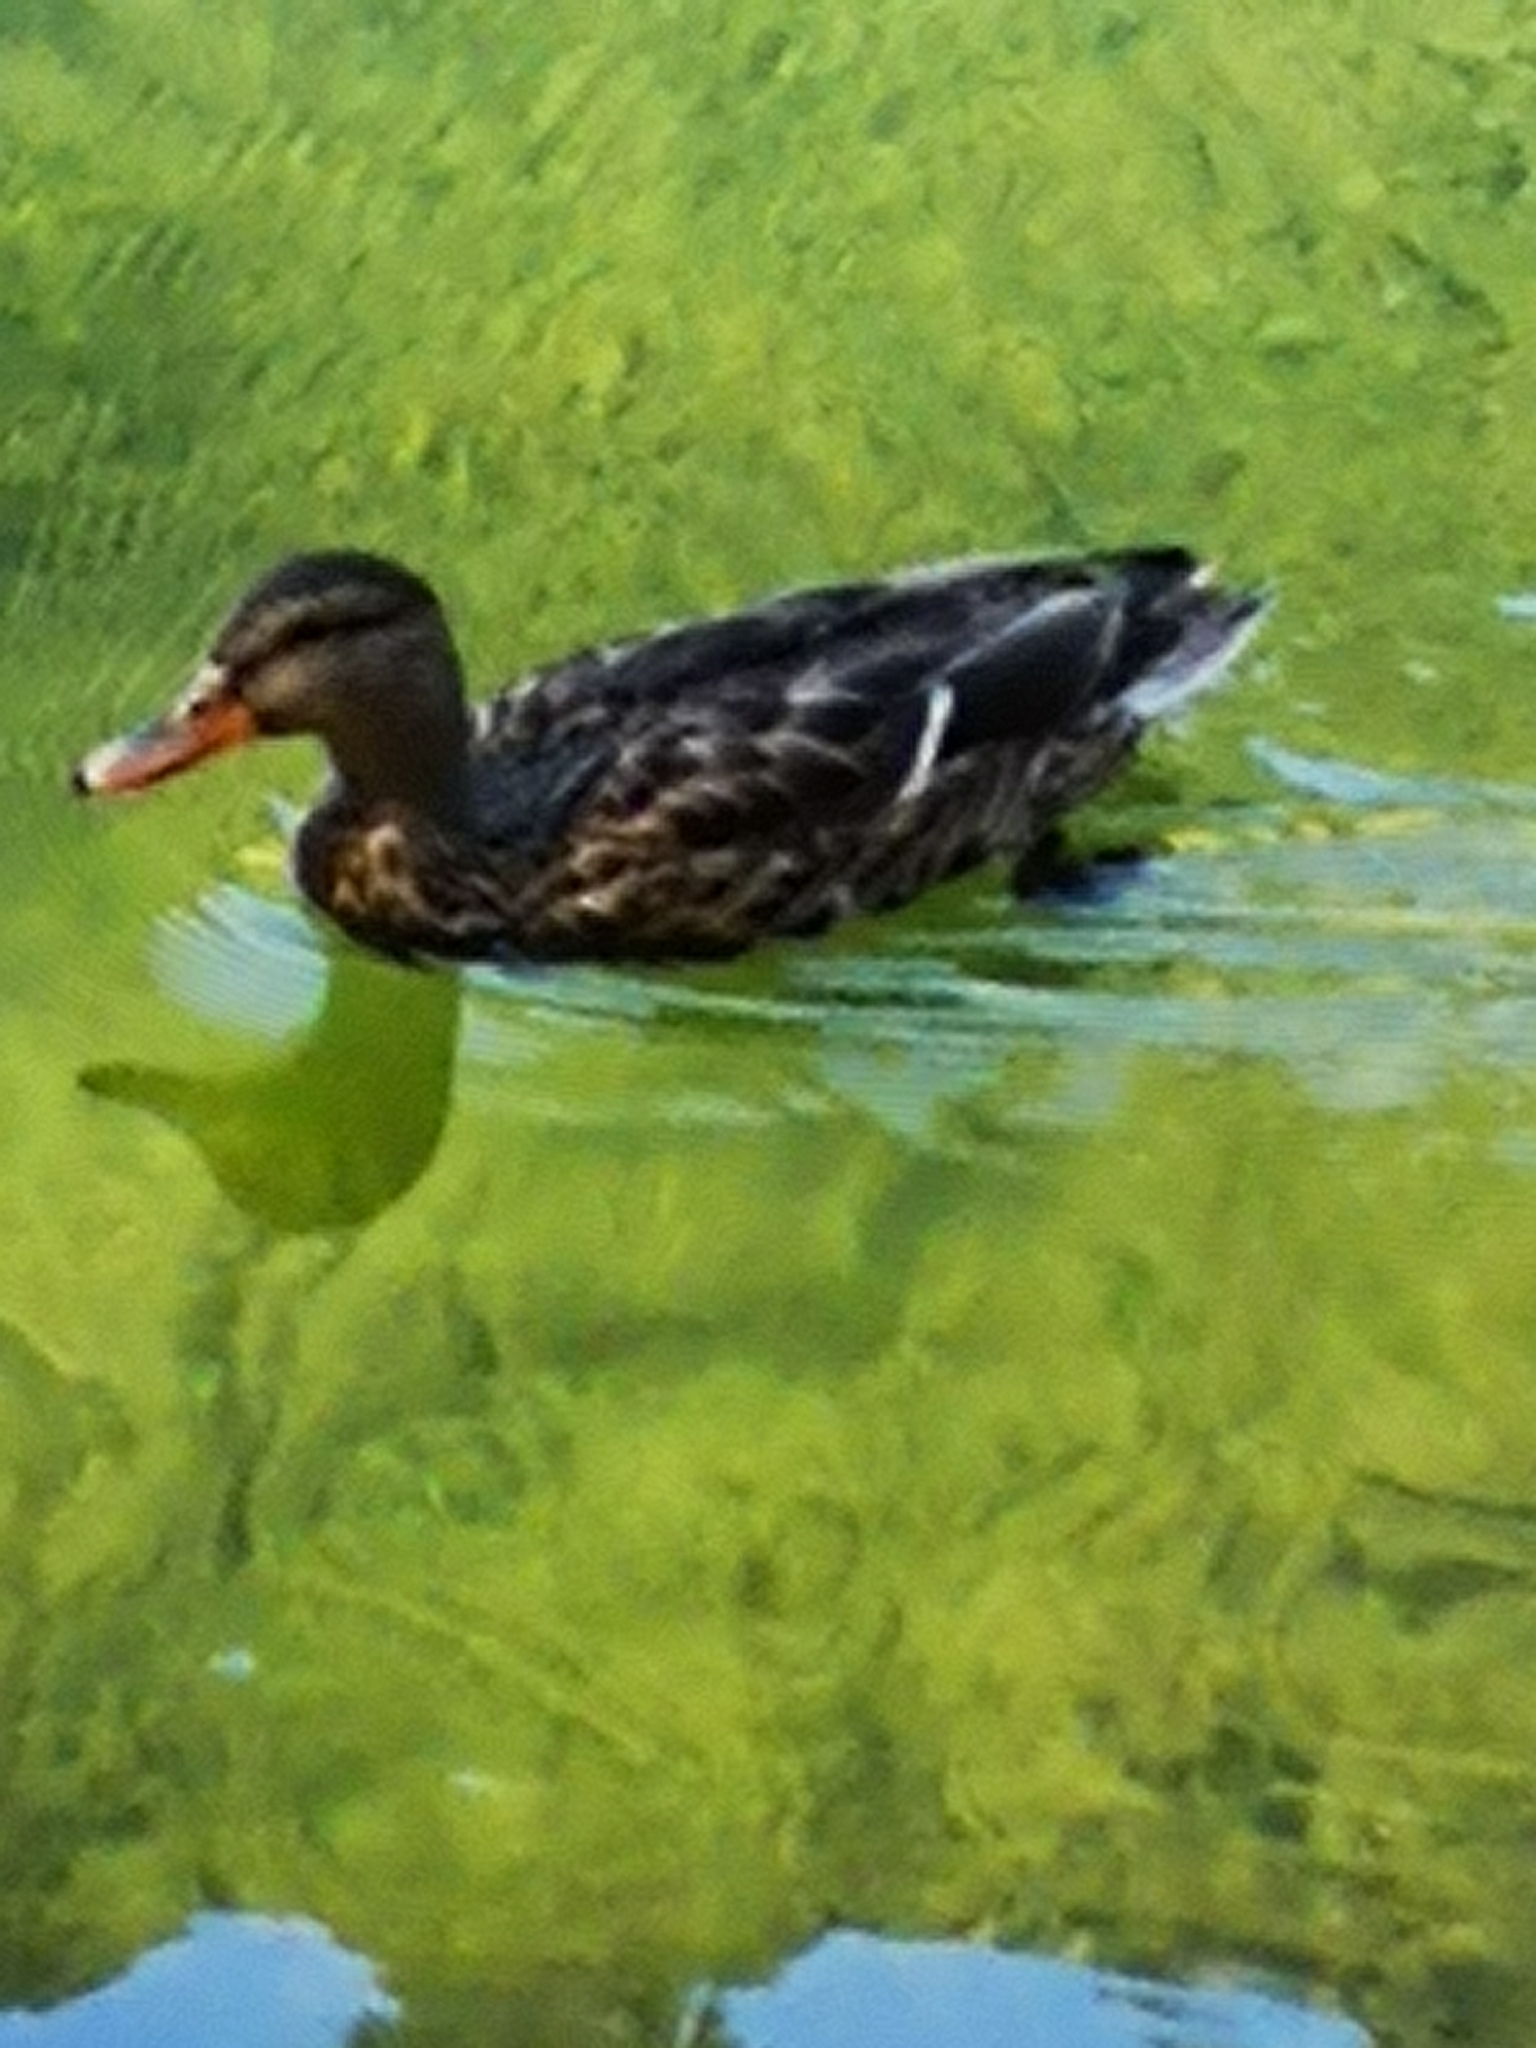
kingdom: Animalia
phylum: Chordata
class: Aves
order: Anseriformes
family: Anatidae
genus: Anas
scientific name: Anas platyrhynchos
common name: Mallard
